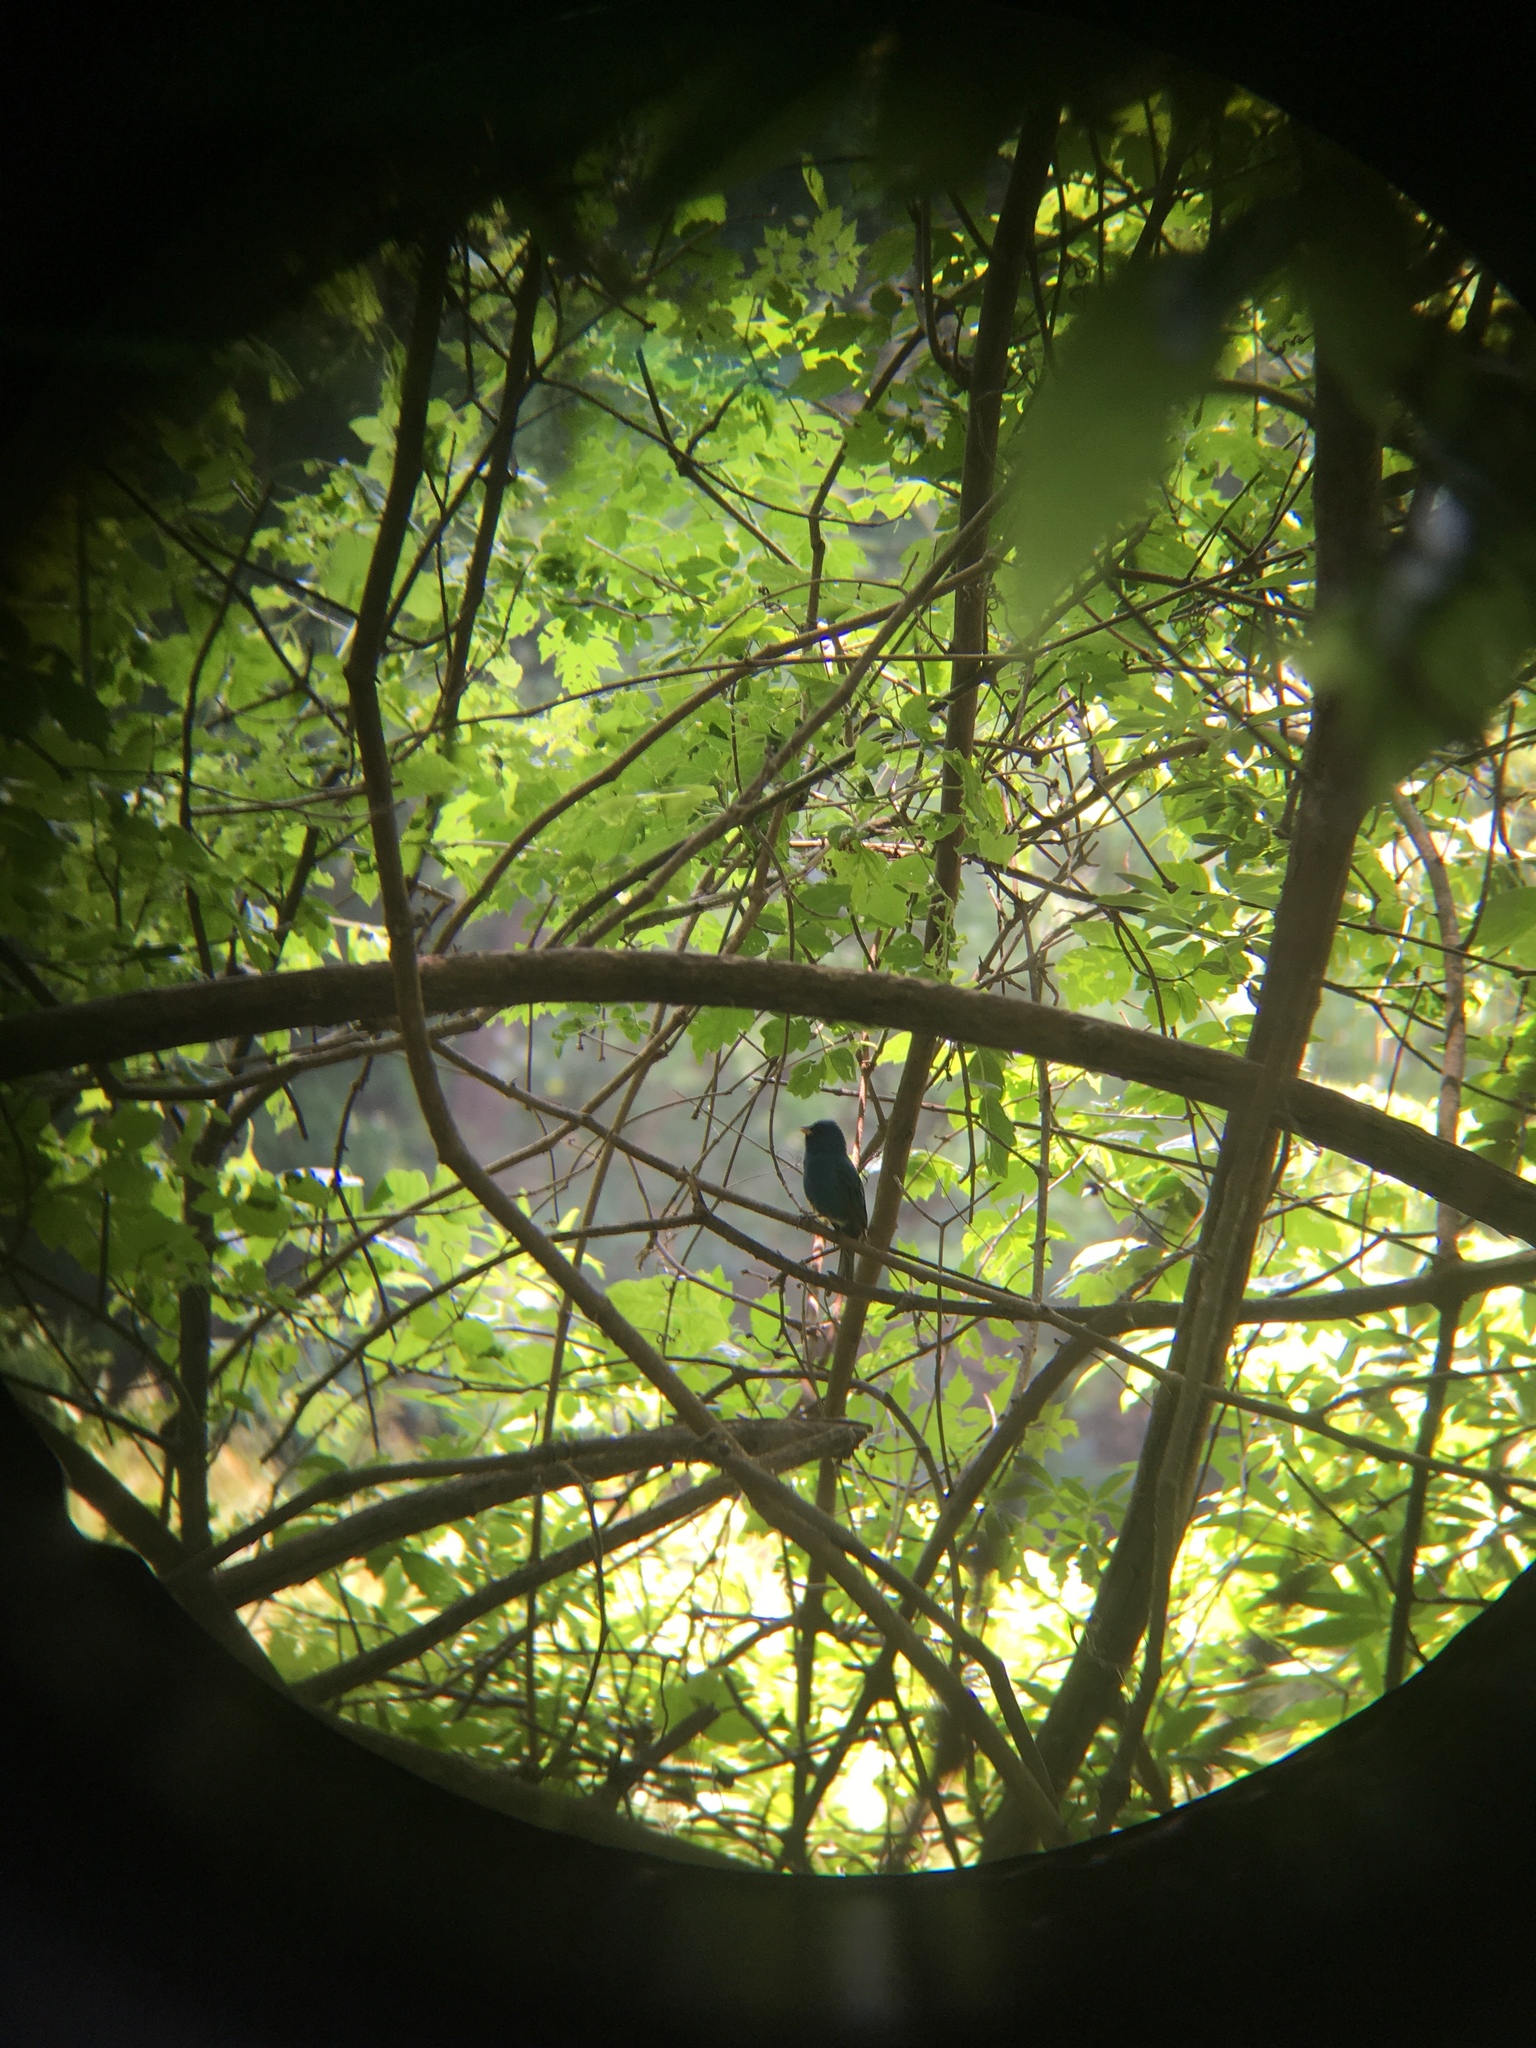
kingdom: Animalia
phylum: Chordata
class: Aves
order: Passeriformes
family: Cardinalidae
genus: Passerina
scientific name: Passerina cyanea
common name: Indigo bunting
